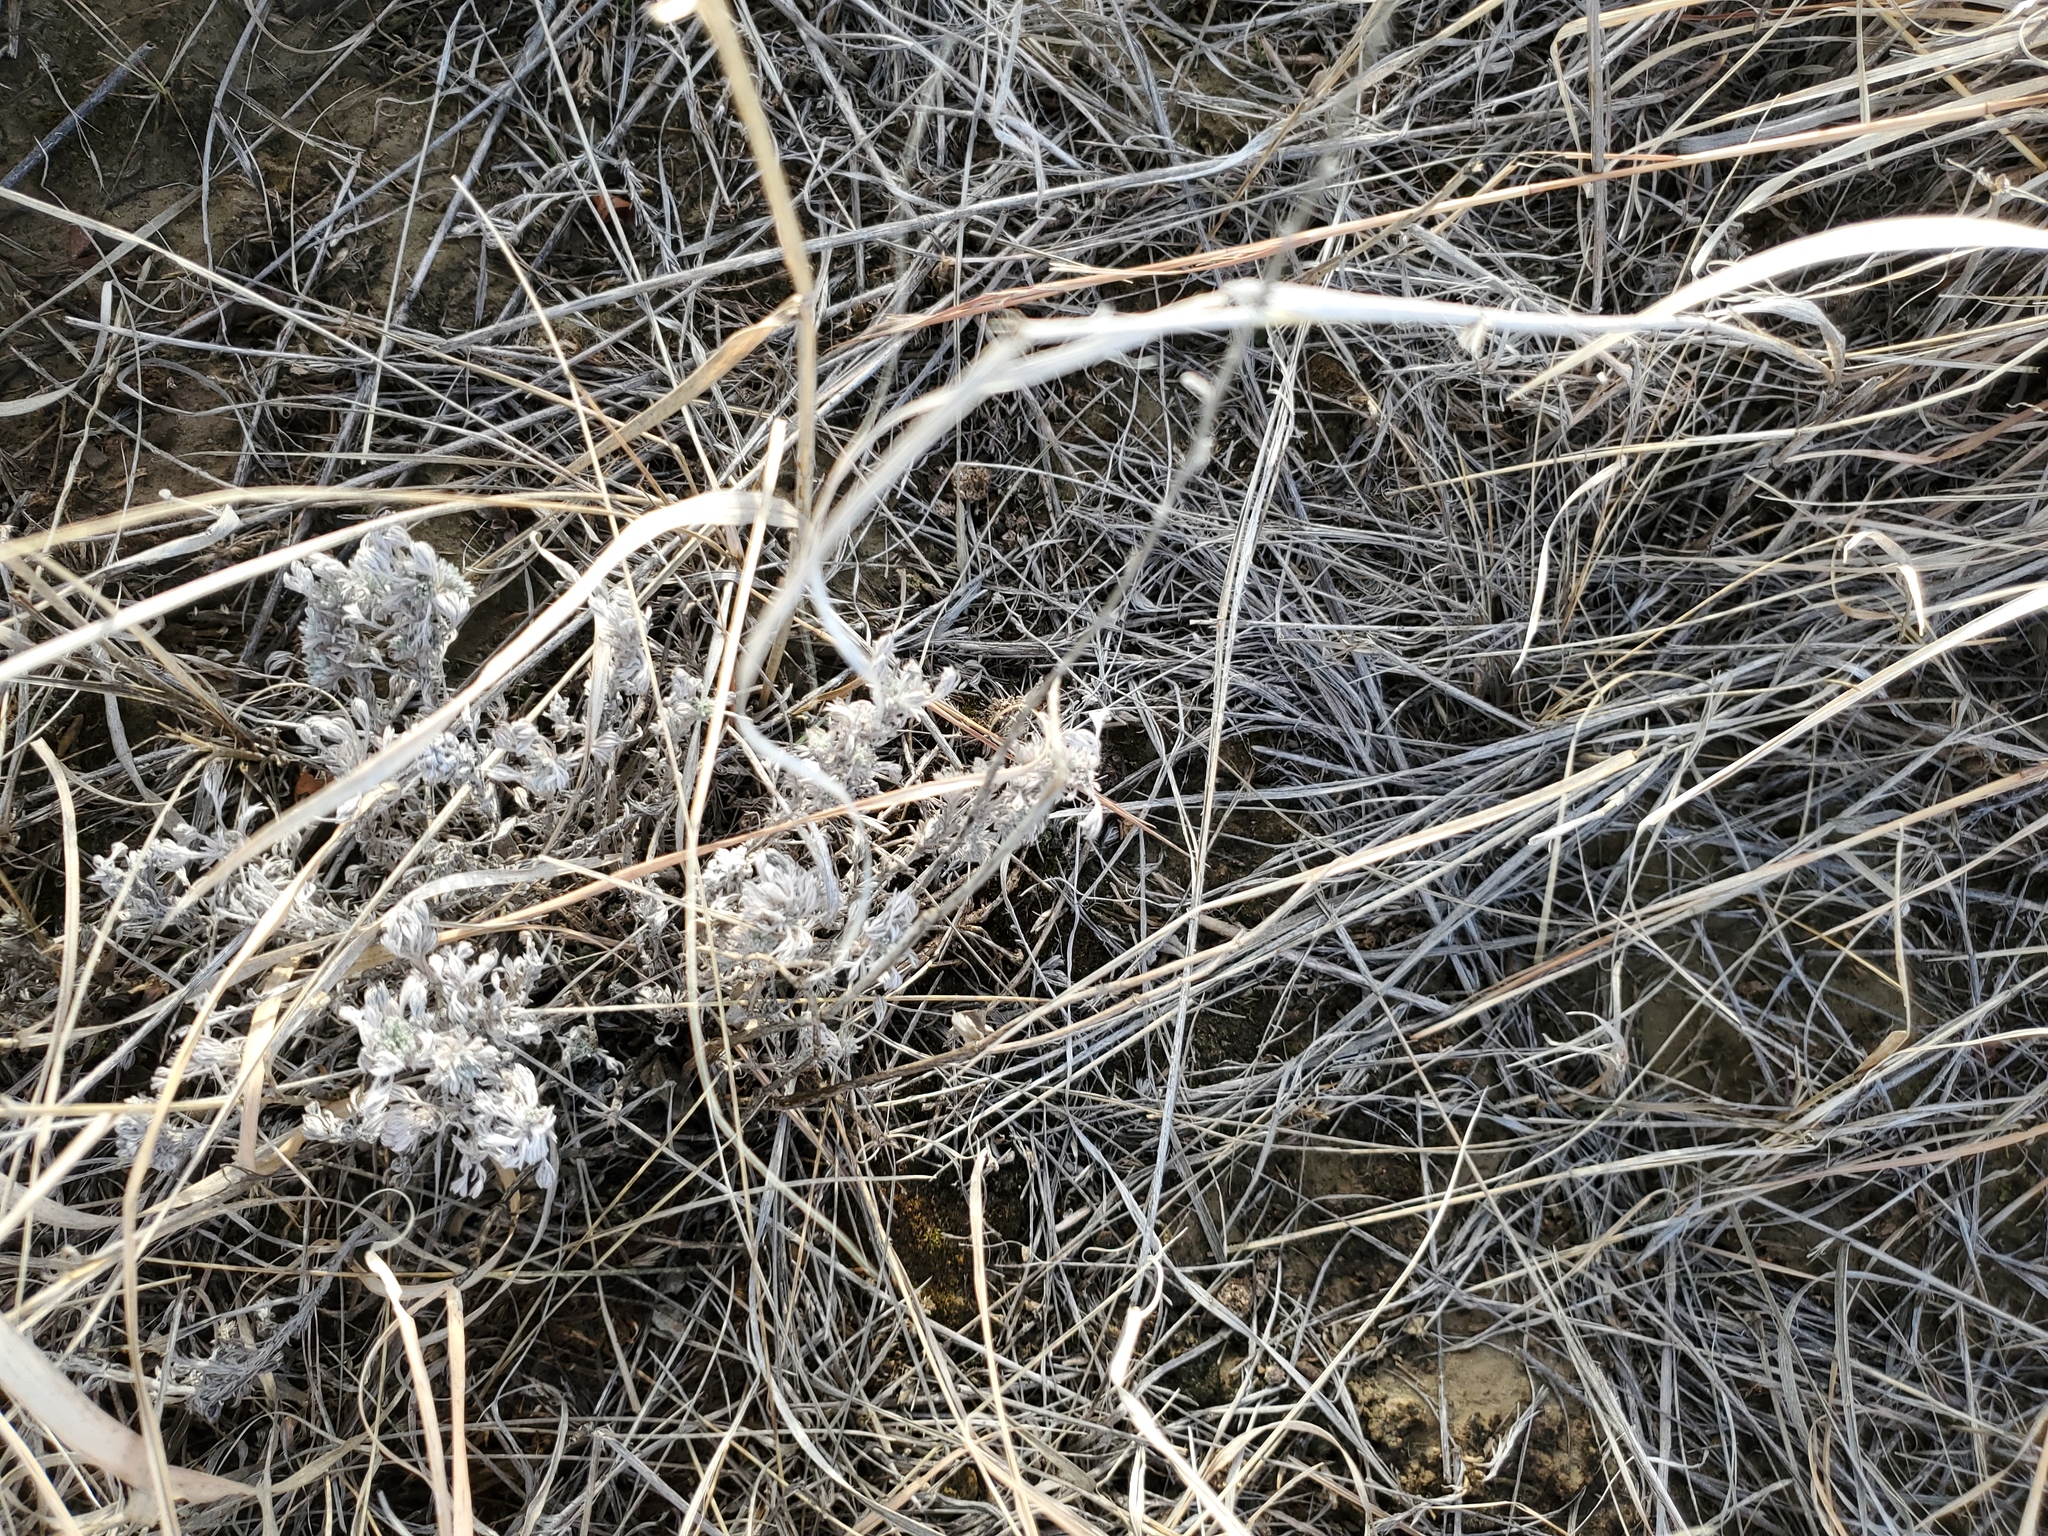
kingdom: Plantae
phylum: Tracheophyta
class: Magnoliopsida
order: Asterales
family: Asteraceae
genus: Artemisia
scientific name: Artemisia frigida
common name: Prairie sagewort
